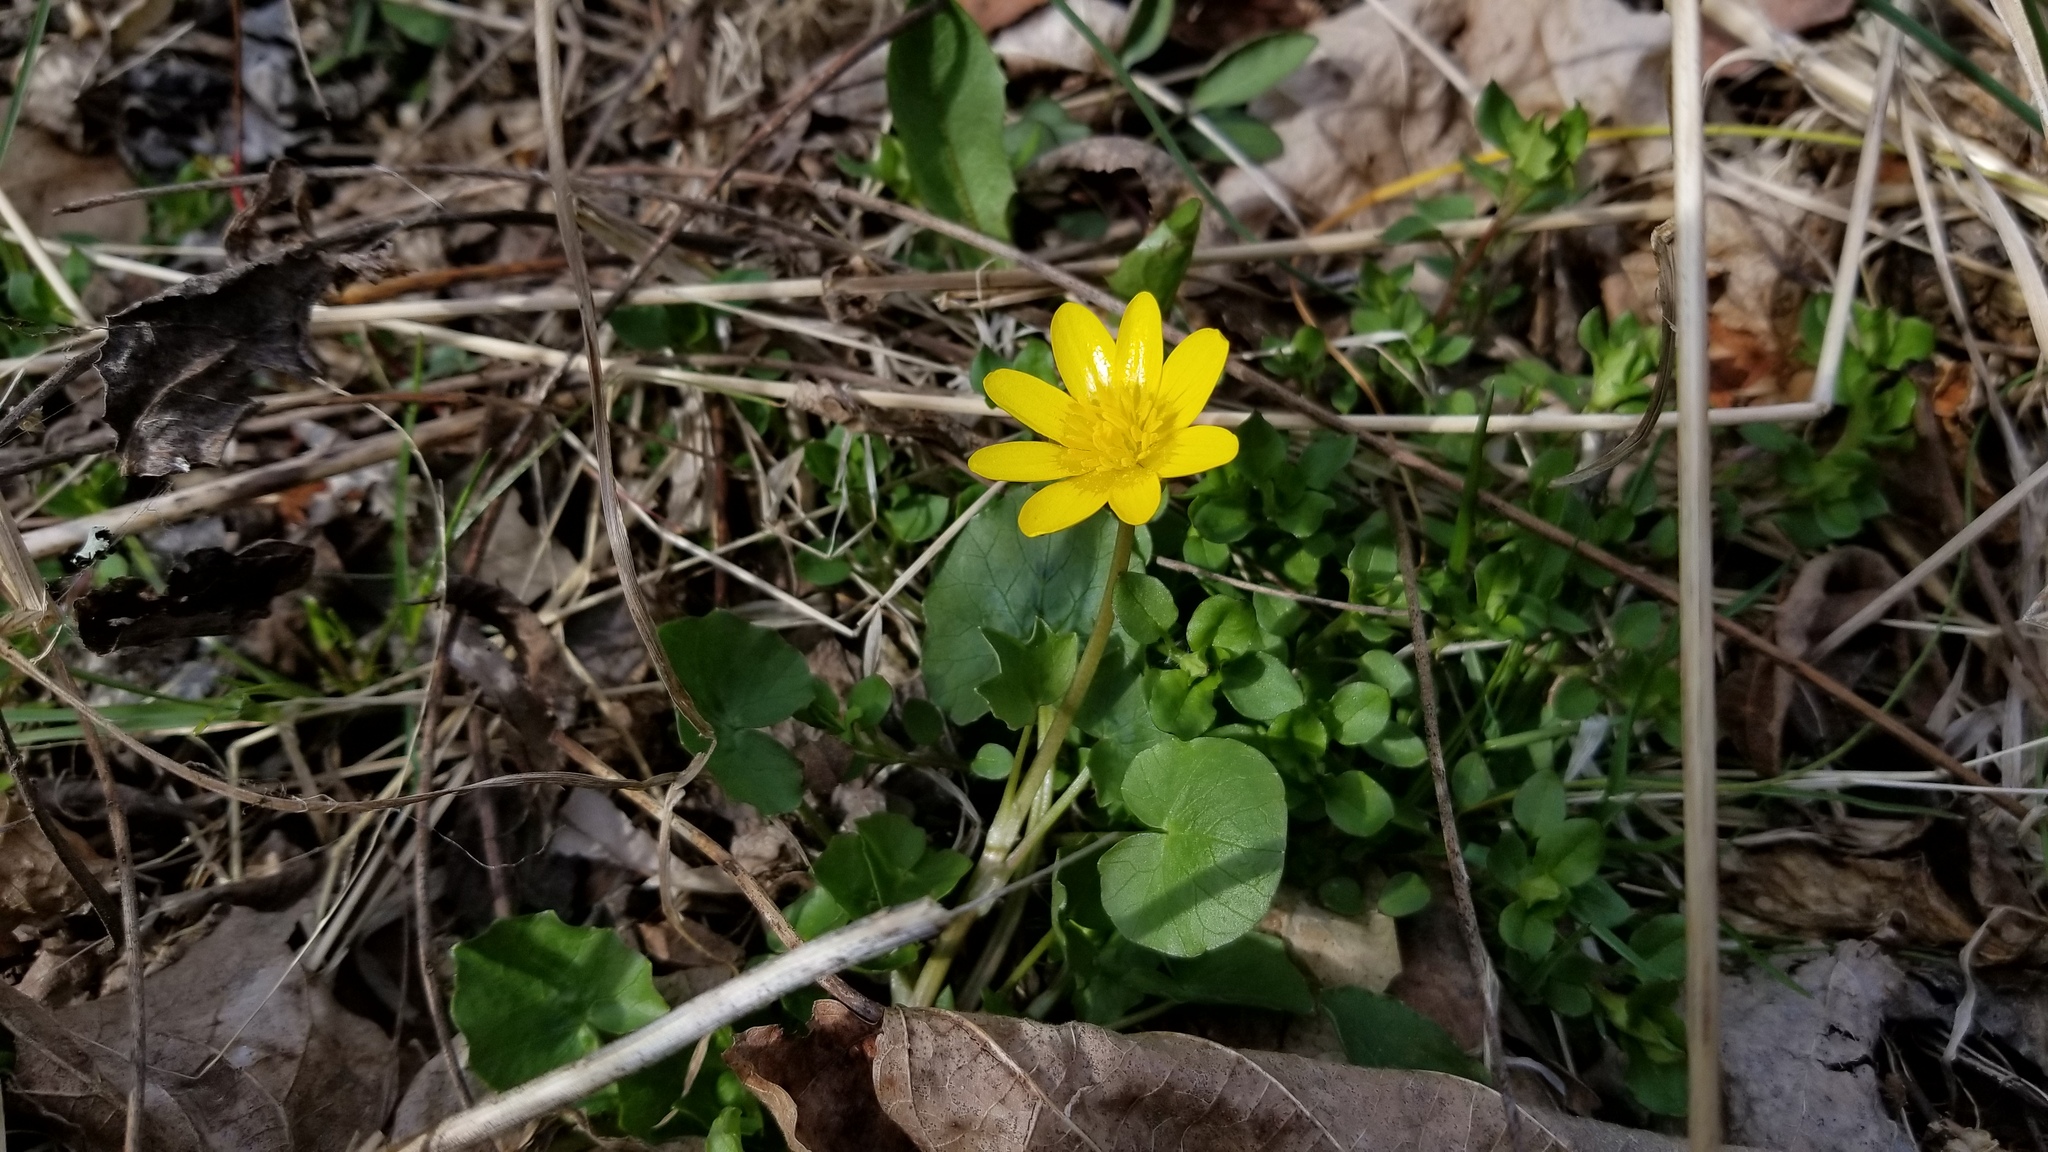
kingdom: Plantae
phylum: Tracheophyta
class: Magnoliopsida
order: Ranunculales
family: Ranunculaceae
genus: Ficaria
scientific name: Ficaria verna
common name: Lesser celandine
